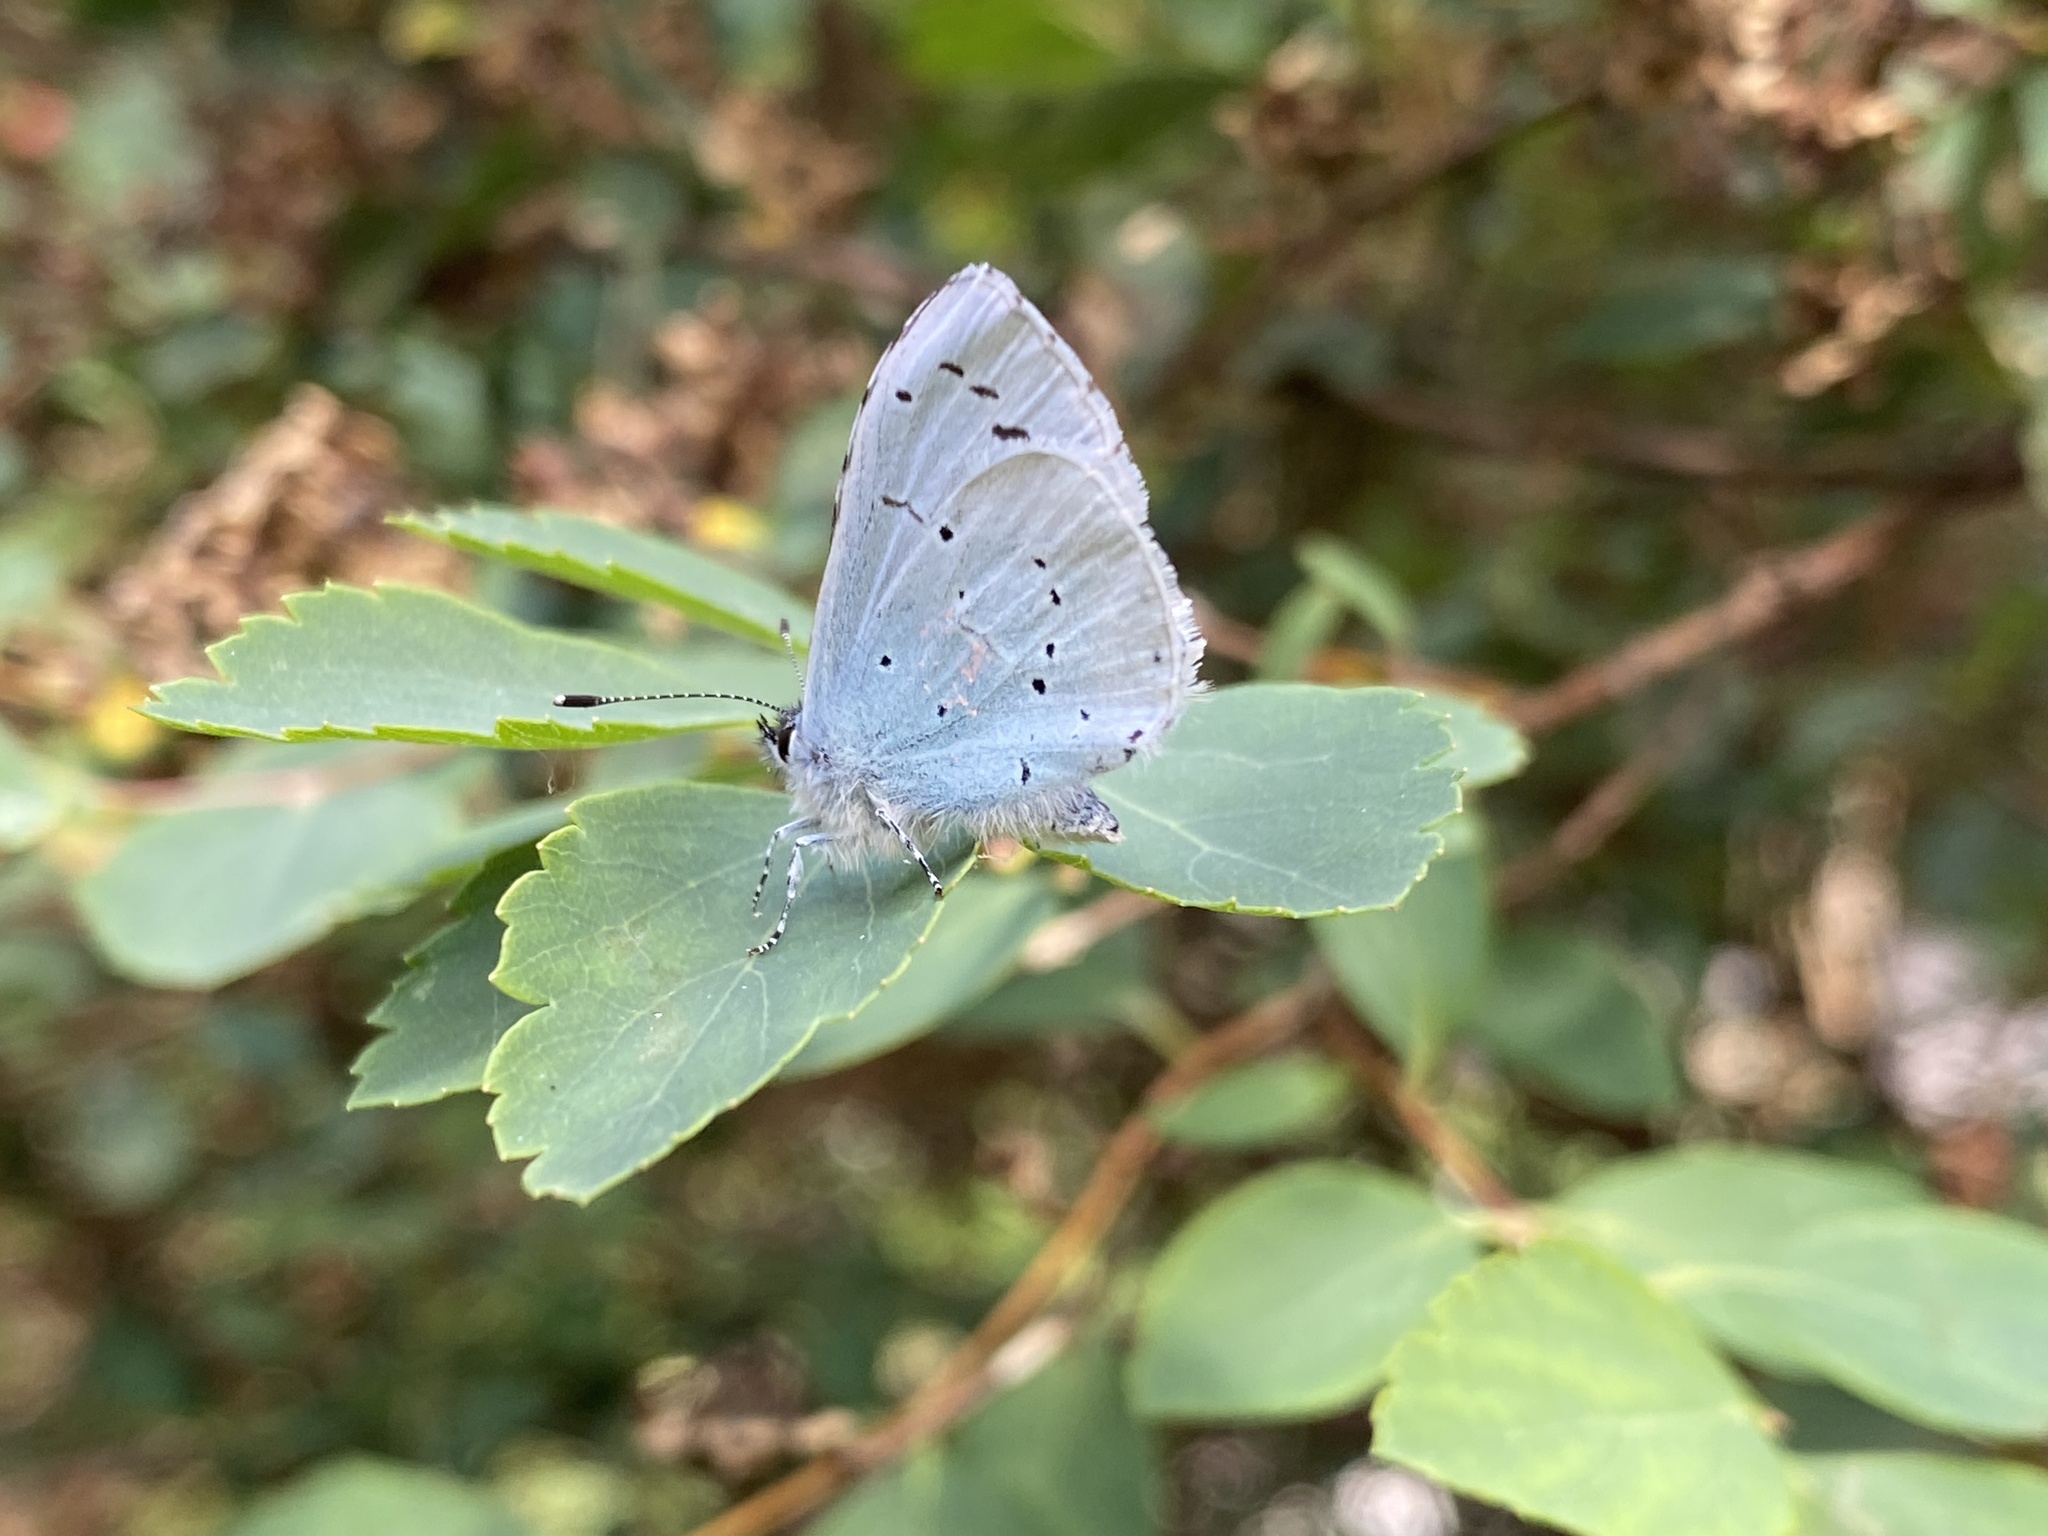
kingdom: Animalia
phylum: Arthropoda
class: Insecta
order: Lepidoptera
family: Lycaenidae
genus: Celastrina
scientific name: Celastrina argiolus
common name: Holly blue
